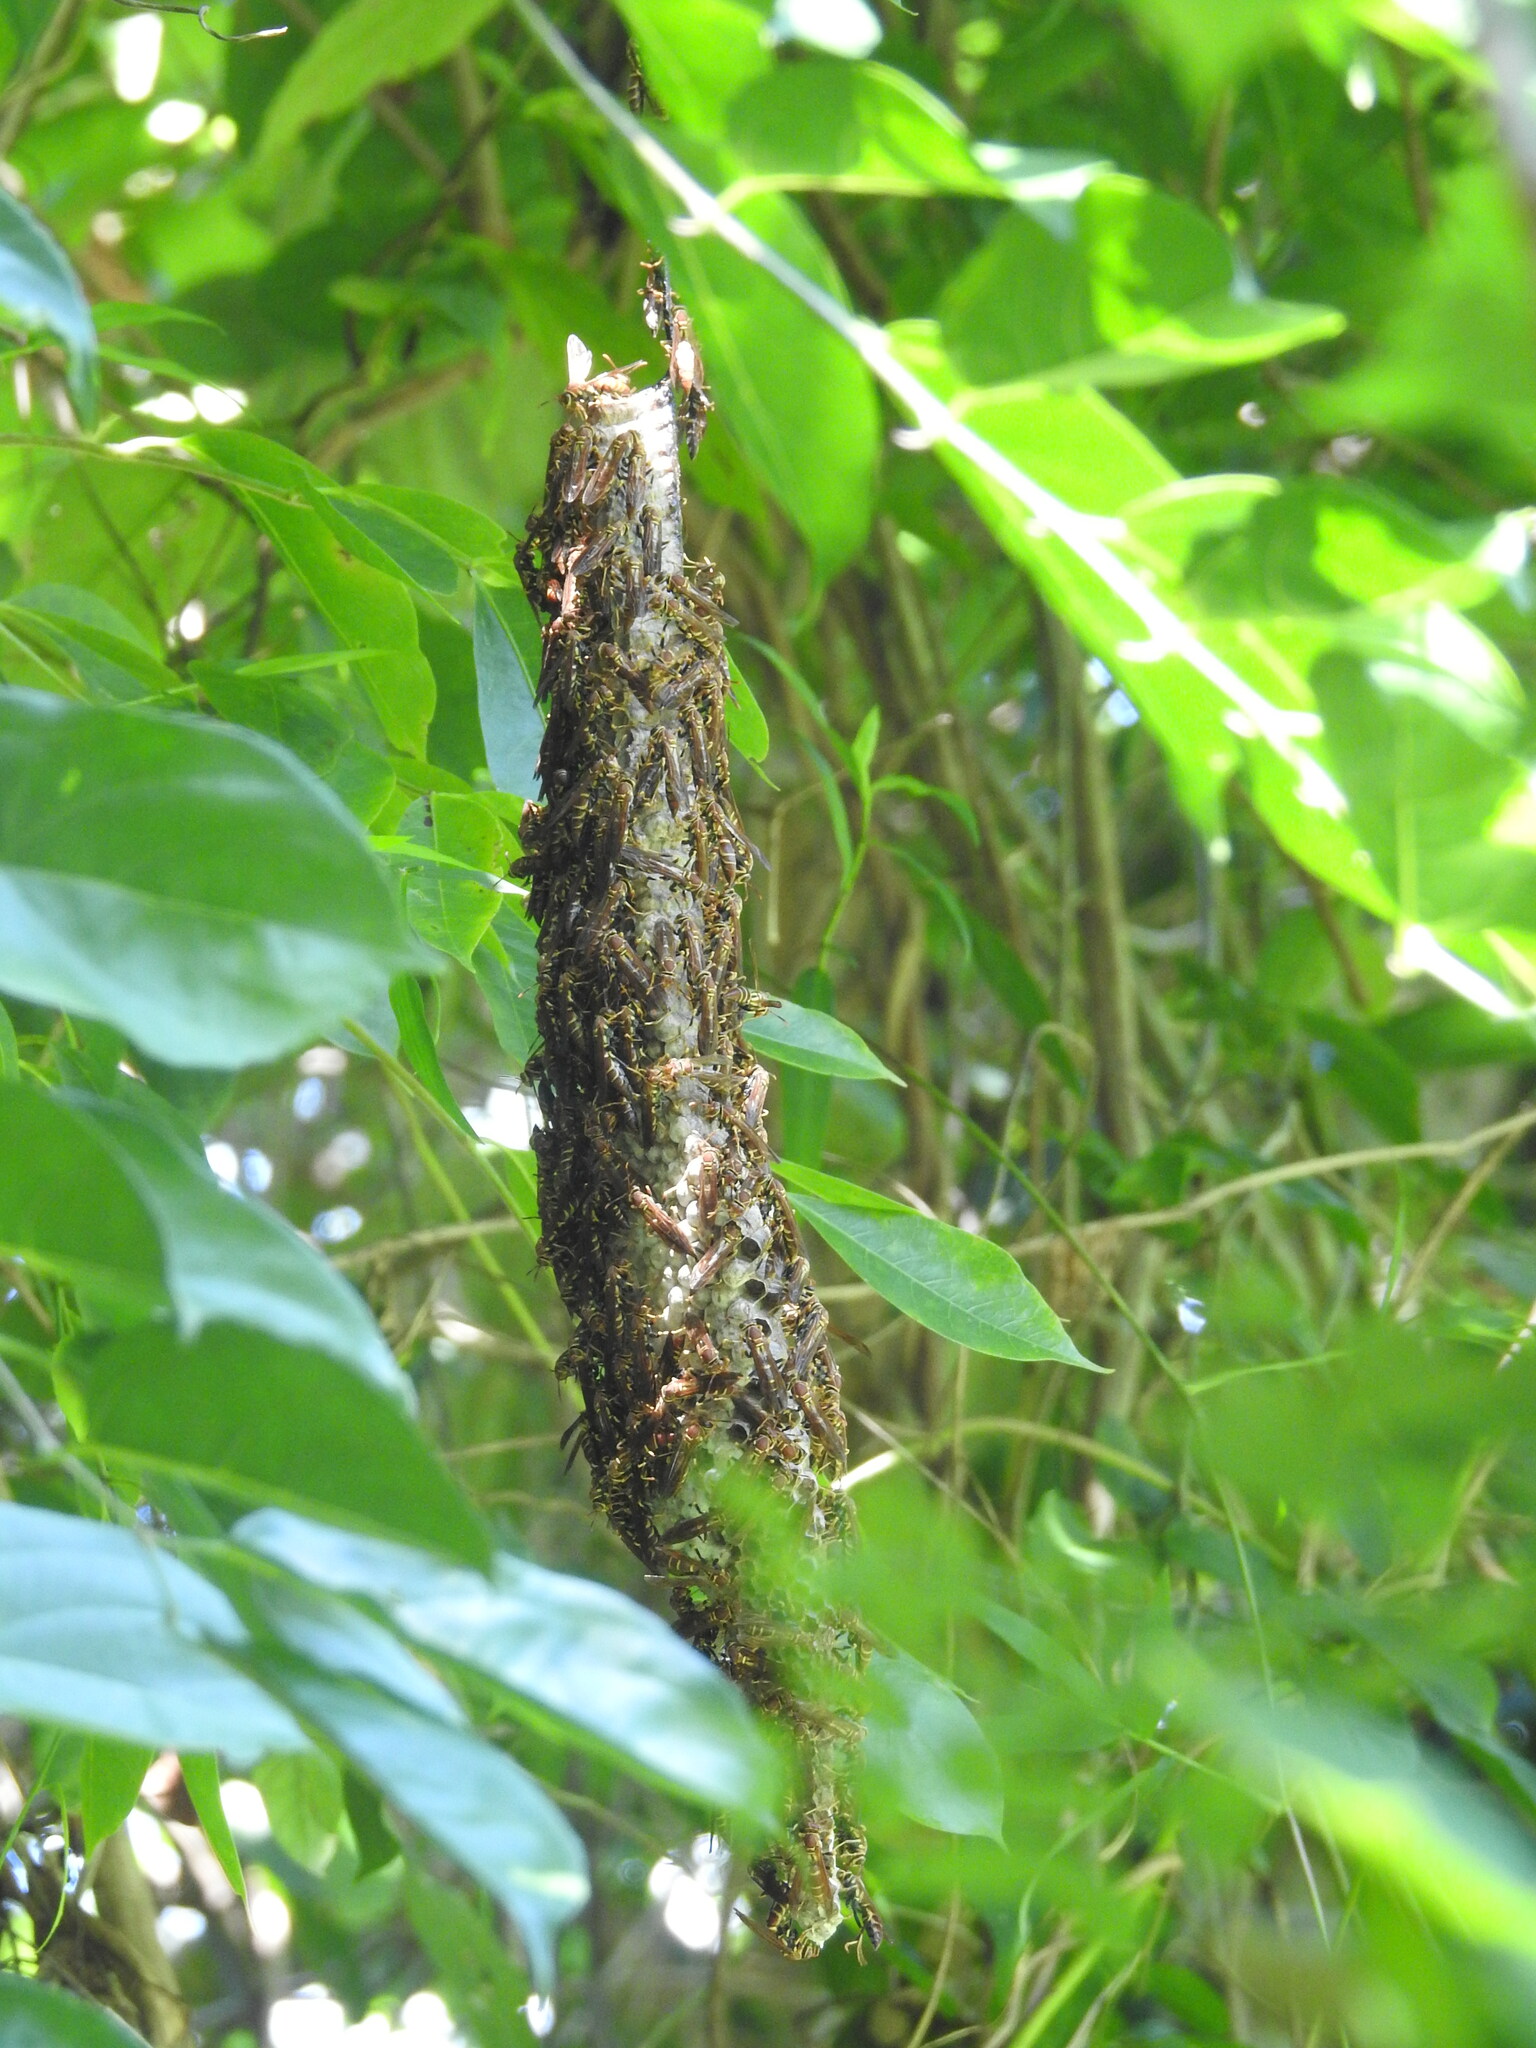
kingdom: Animalia
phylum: Arthropoda
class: Insecta
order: Hymenoptera
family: Eumenidae
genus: Polistes
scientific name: Polistes instabilis
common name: Unstable paper wasp
